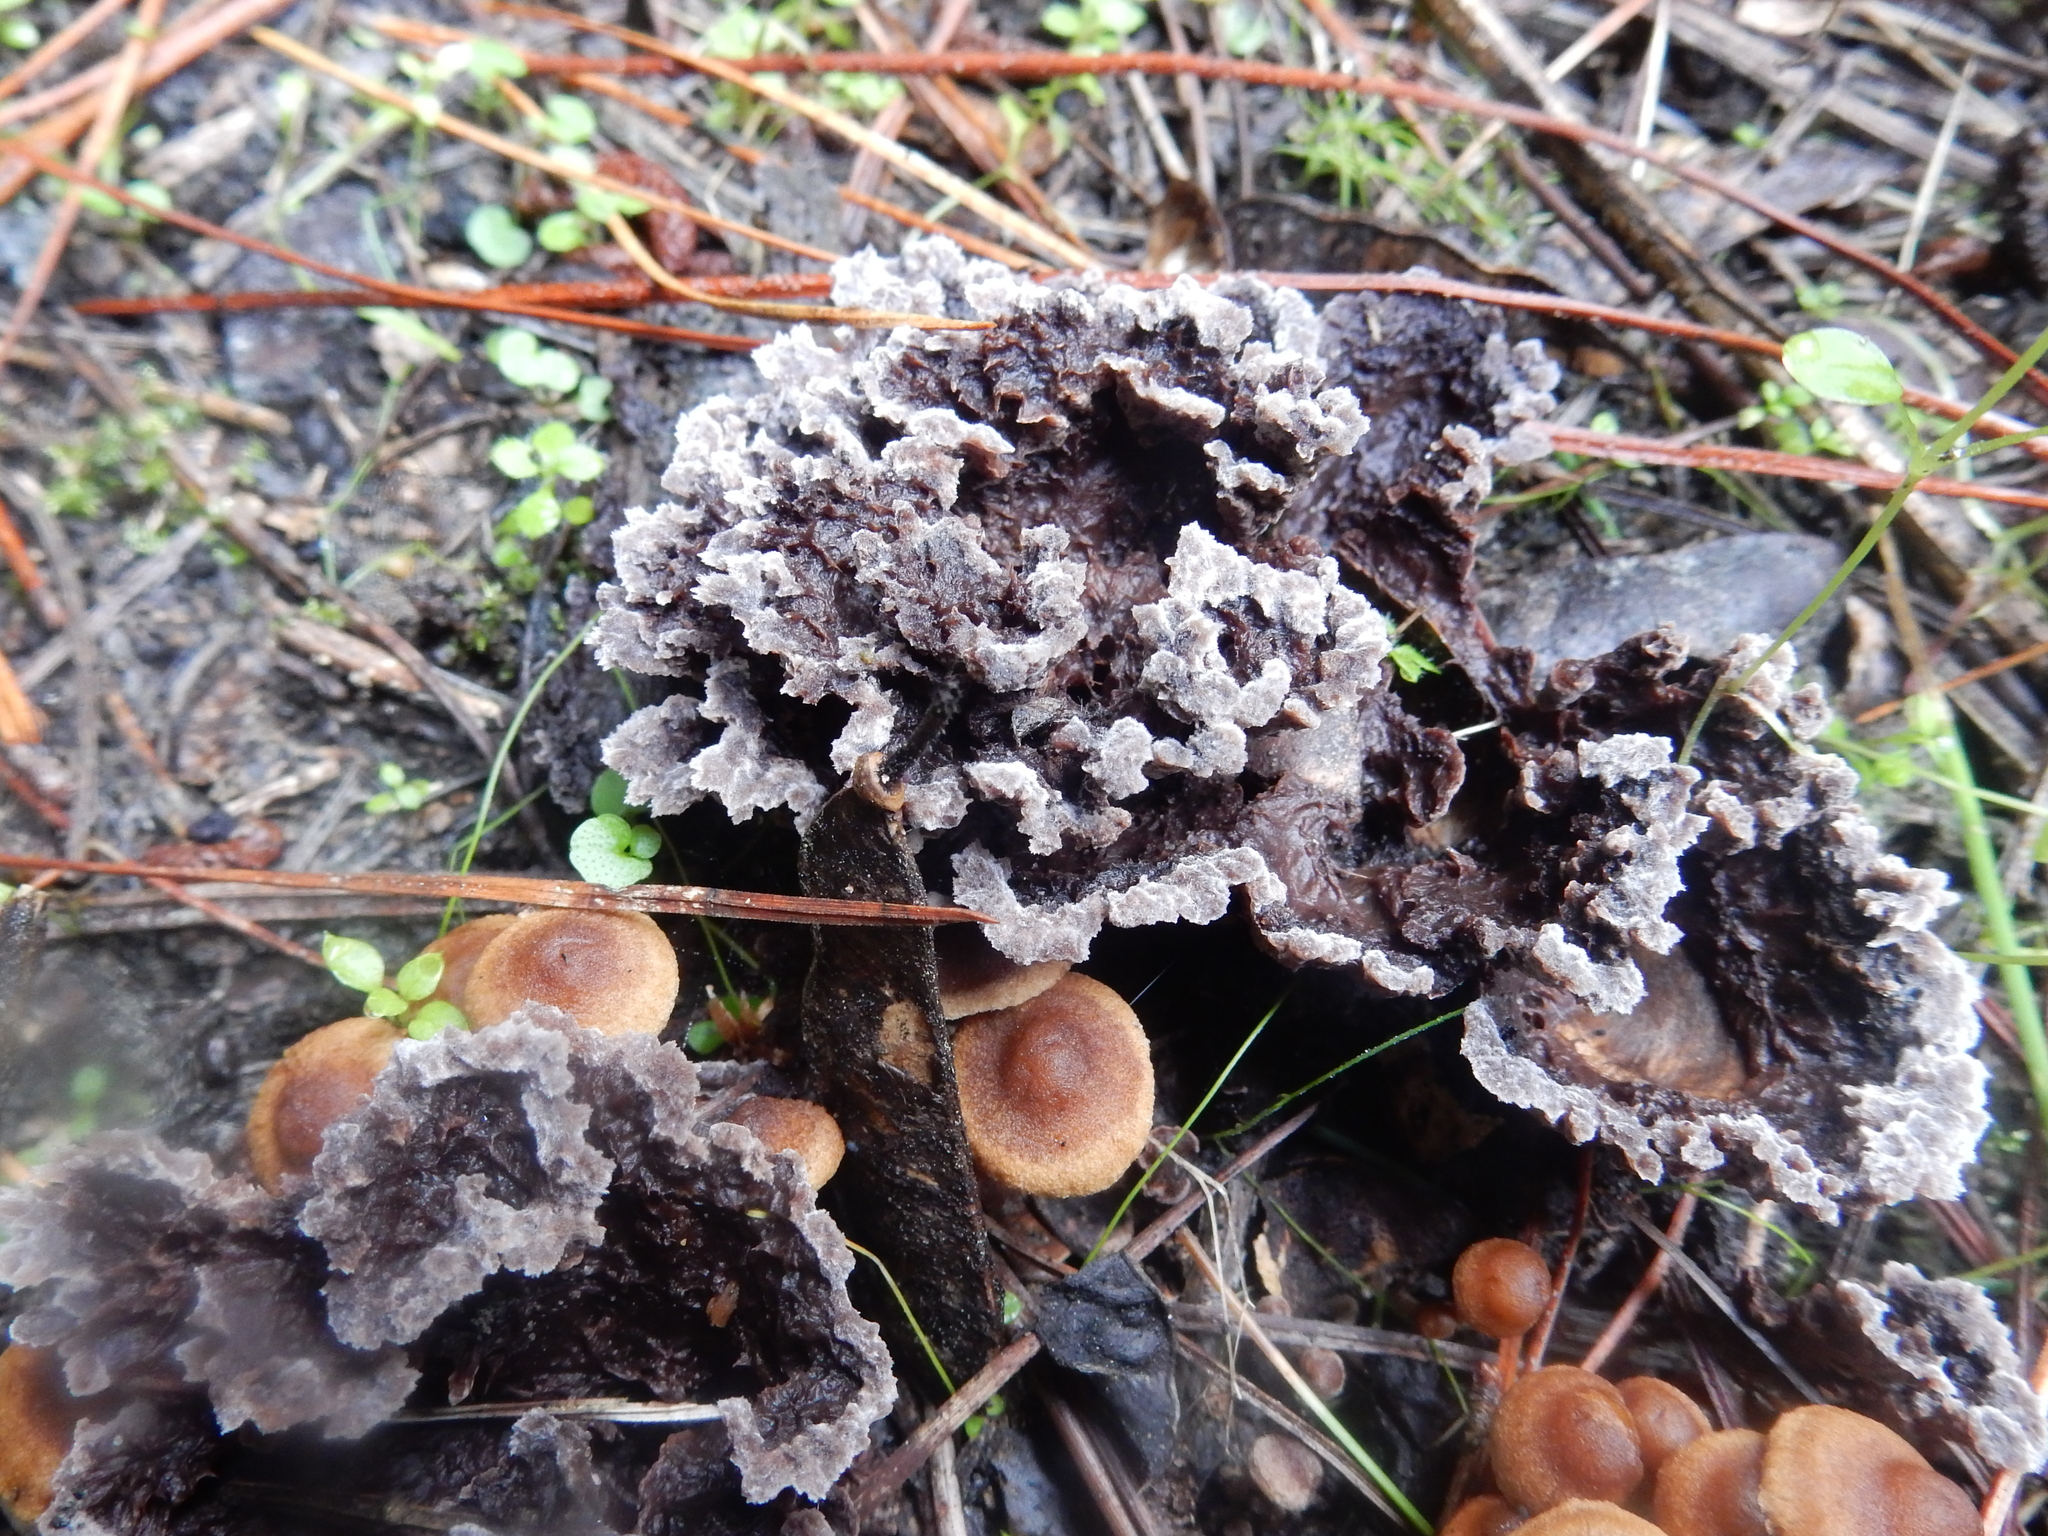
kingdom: Fungi
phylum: Basidiomycota
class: Agaricomycetes
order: Thelephorales
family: Thelephoraceae
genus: Thelephora
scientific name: Thelephora terrestris
